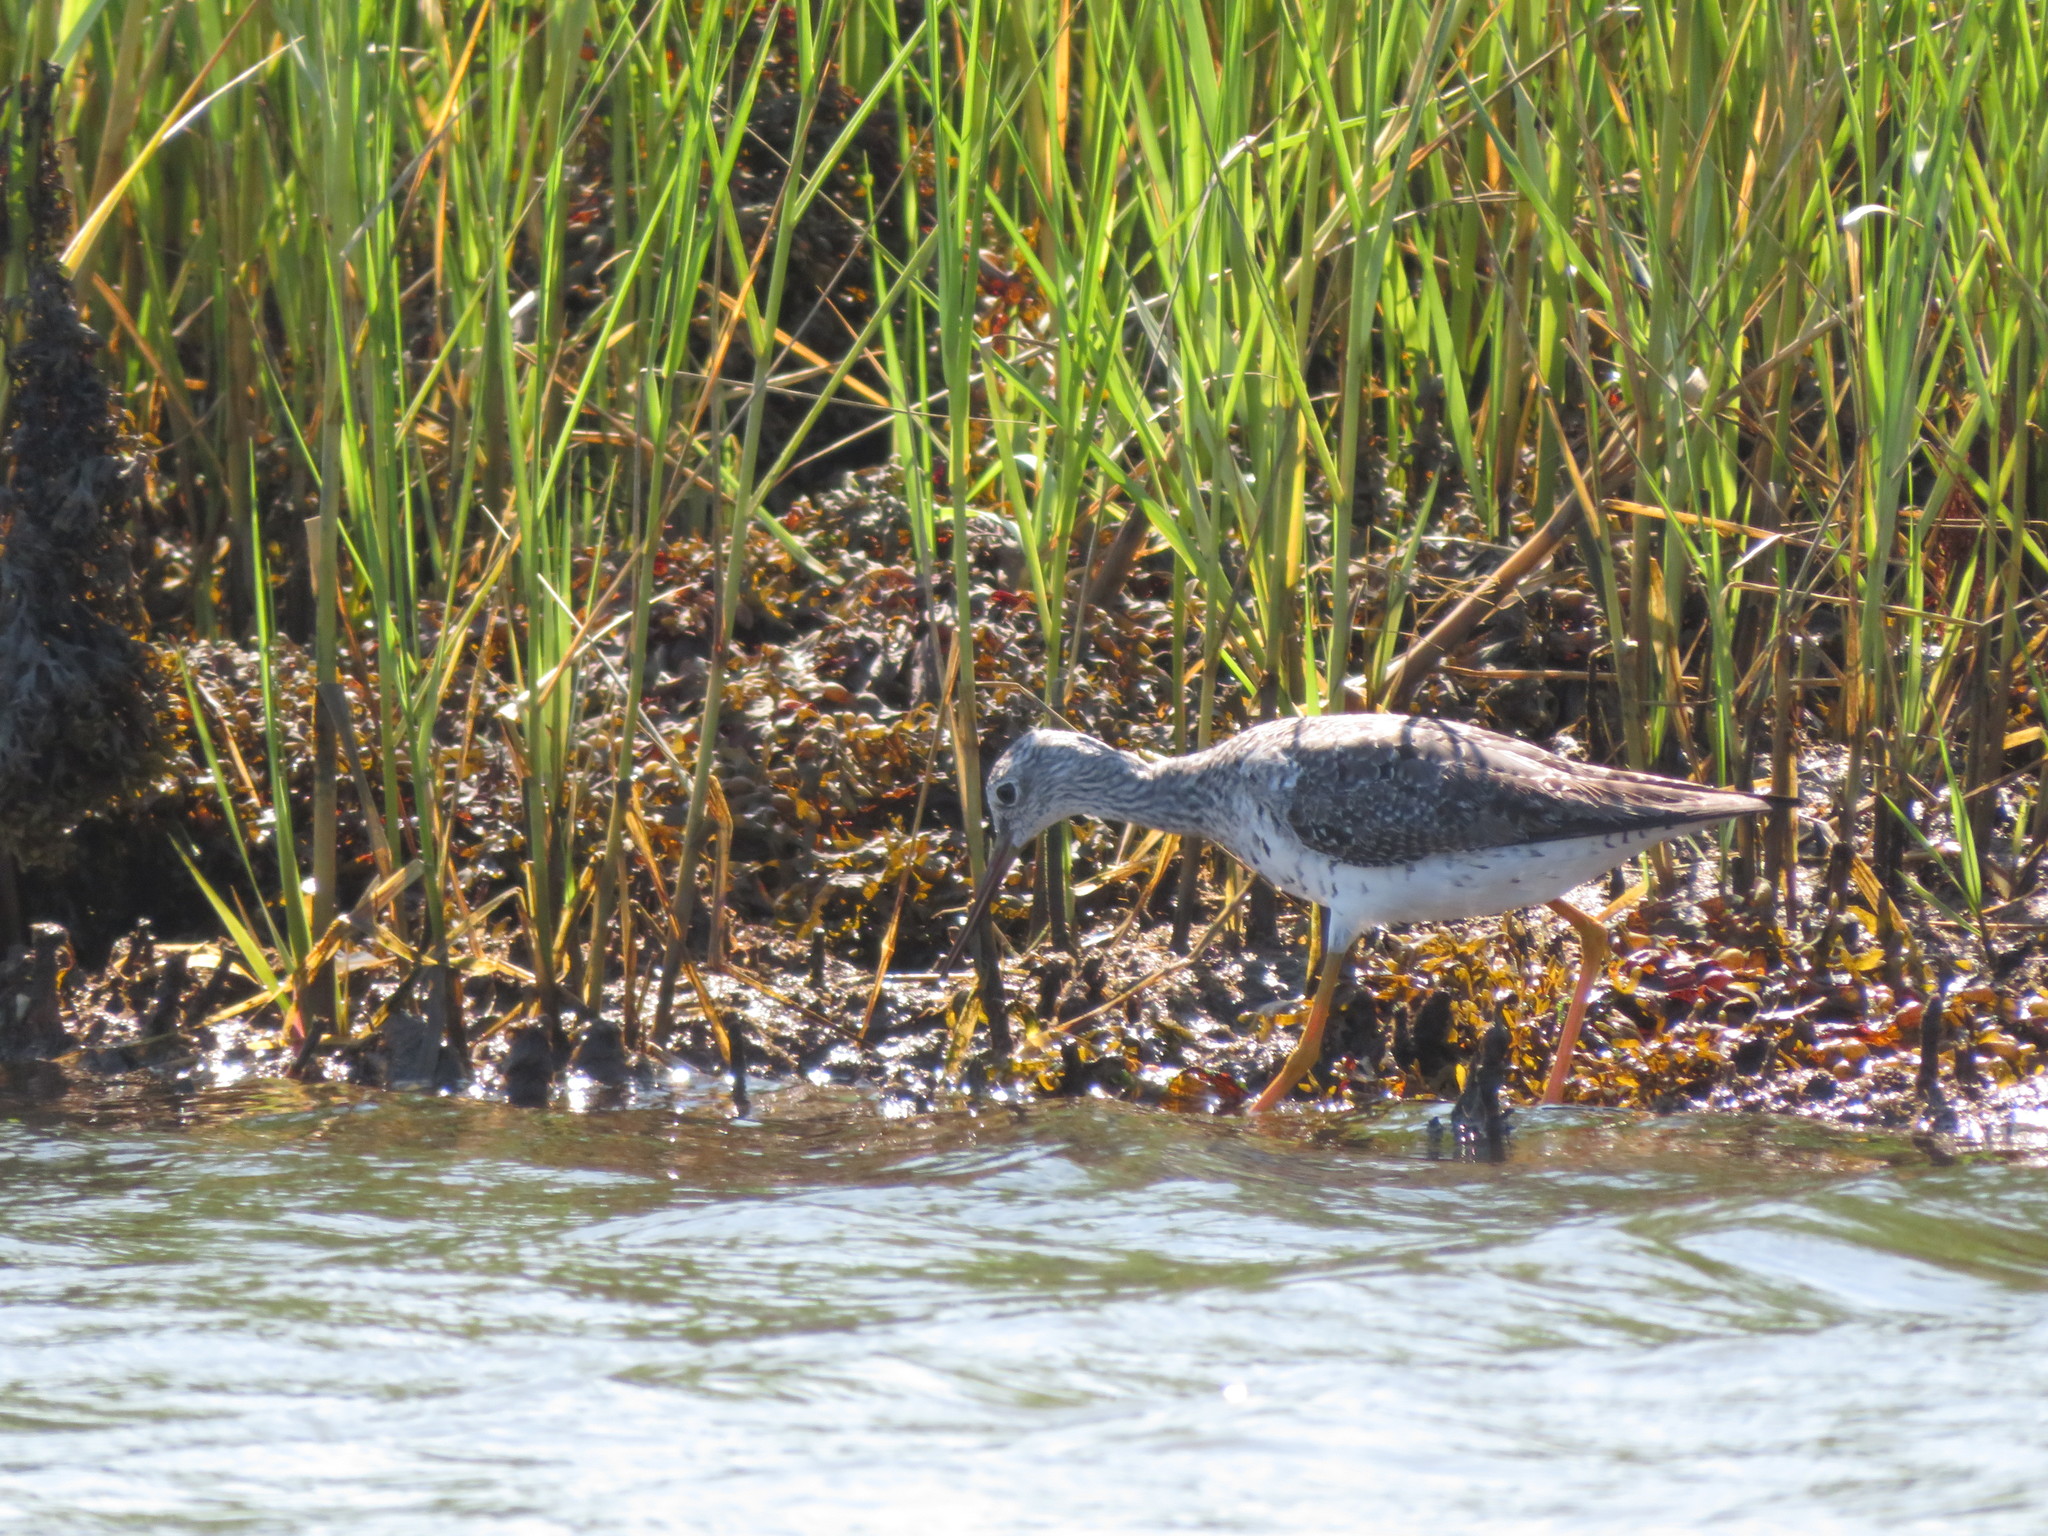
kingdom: Animalia
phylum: Chordata
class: Aves
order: Charadriiformes
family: Scolopacidae
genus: Tringa
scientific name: Tringa melanoleuca
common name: Greater yellowlegs
